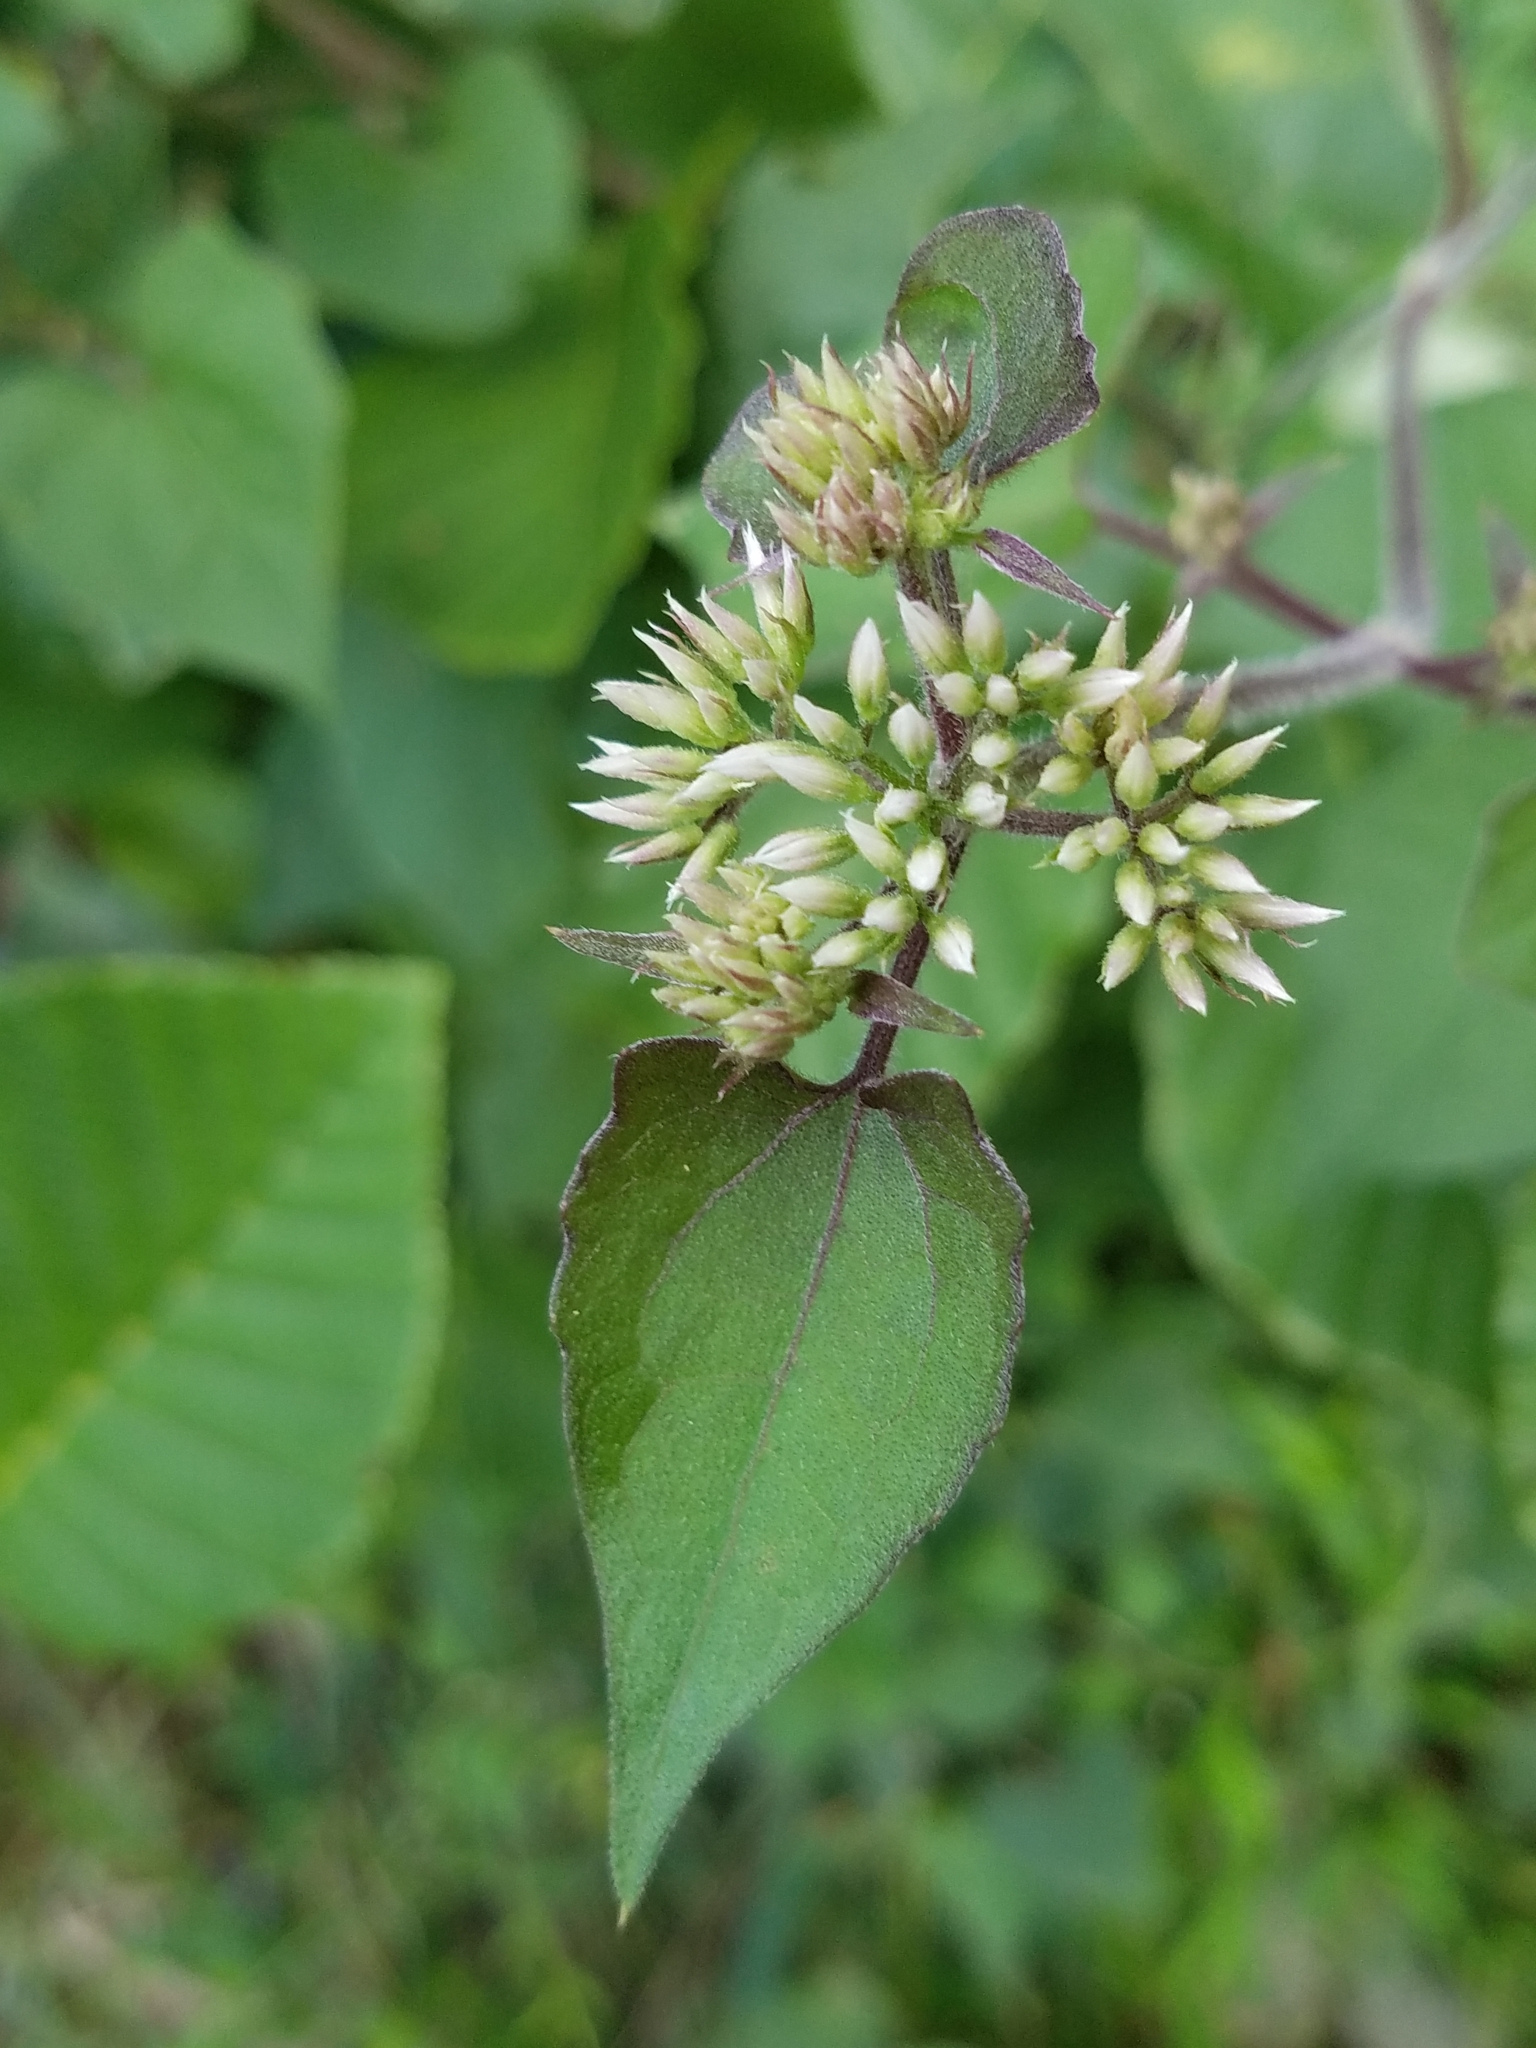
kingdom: Plantae
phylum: Tracheophyta
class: Magnoliopsida
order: Asterales
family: Asteraceae
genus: Mikania
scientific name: Mikania scandens
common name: Climbing hempvine
